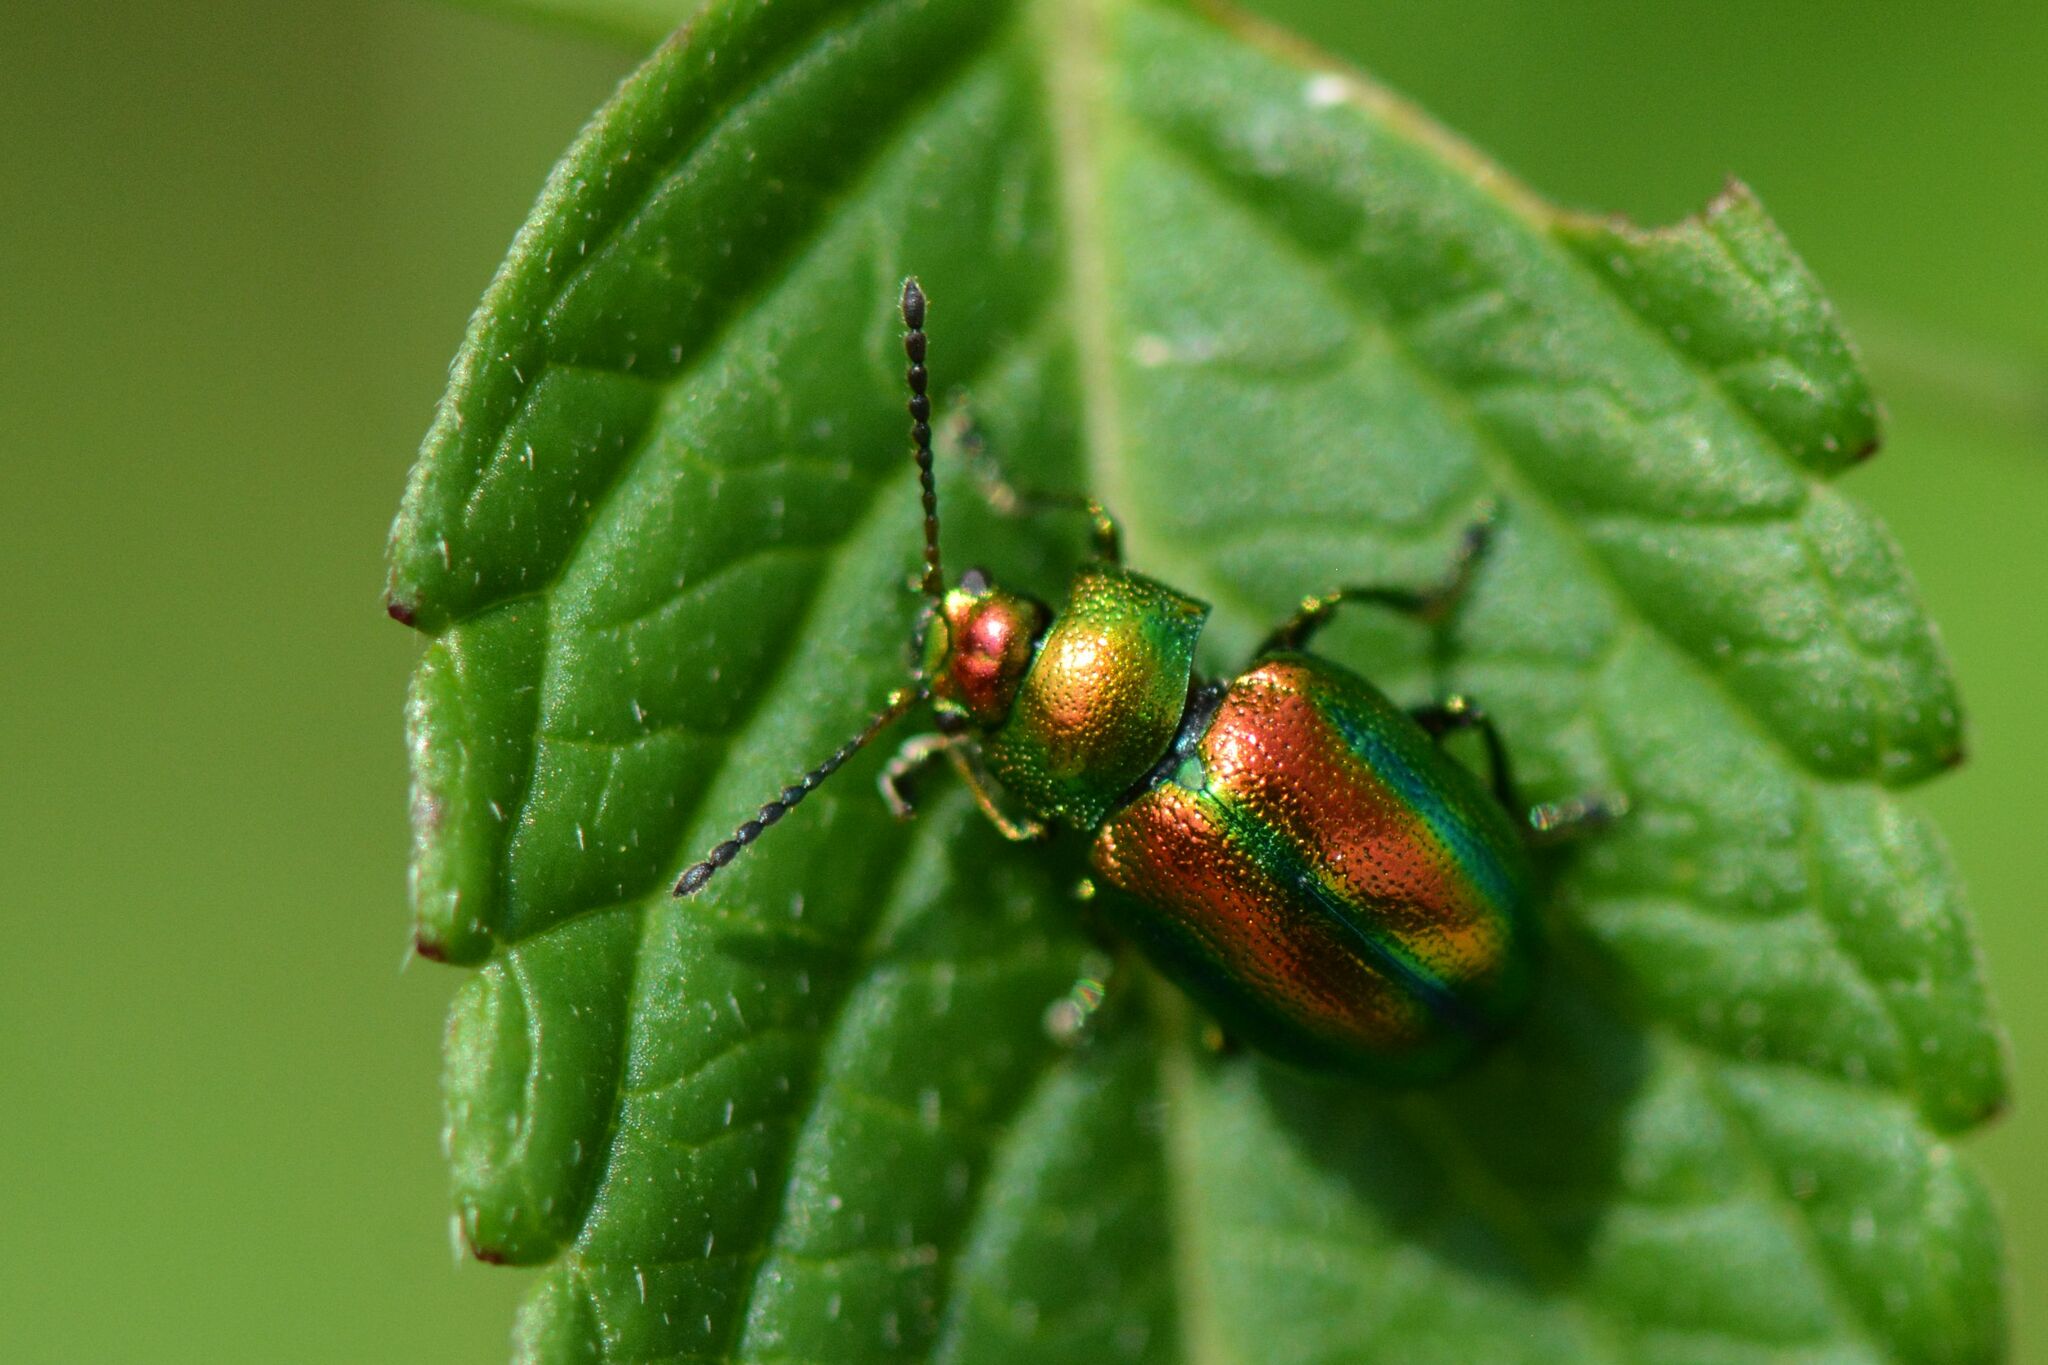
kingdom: Animalia
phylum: Arthropoda
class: Insecta
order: Coleoptera
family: Chrysomelidae
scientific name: Chrysomelidae
